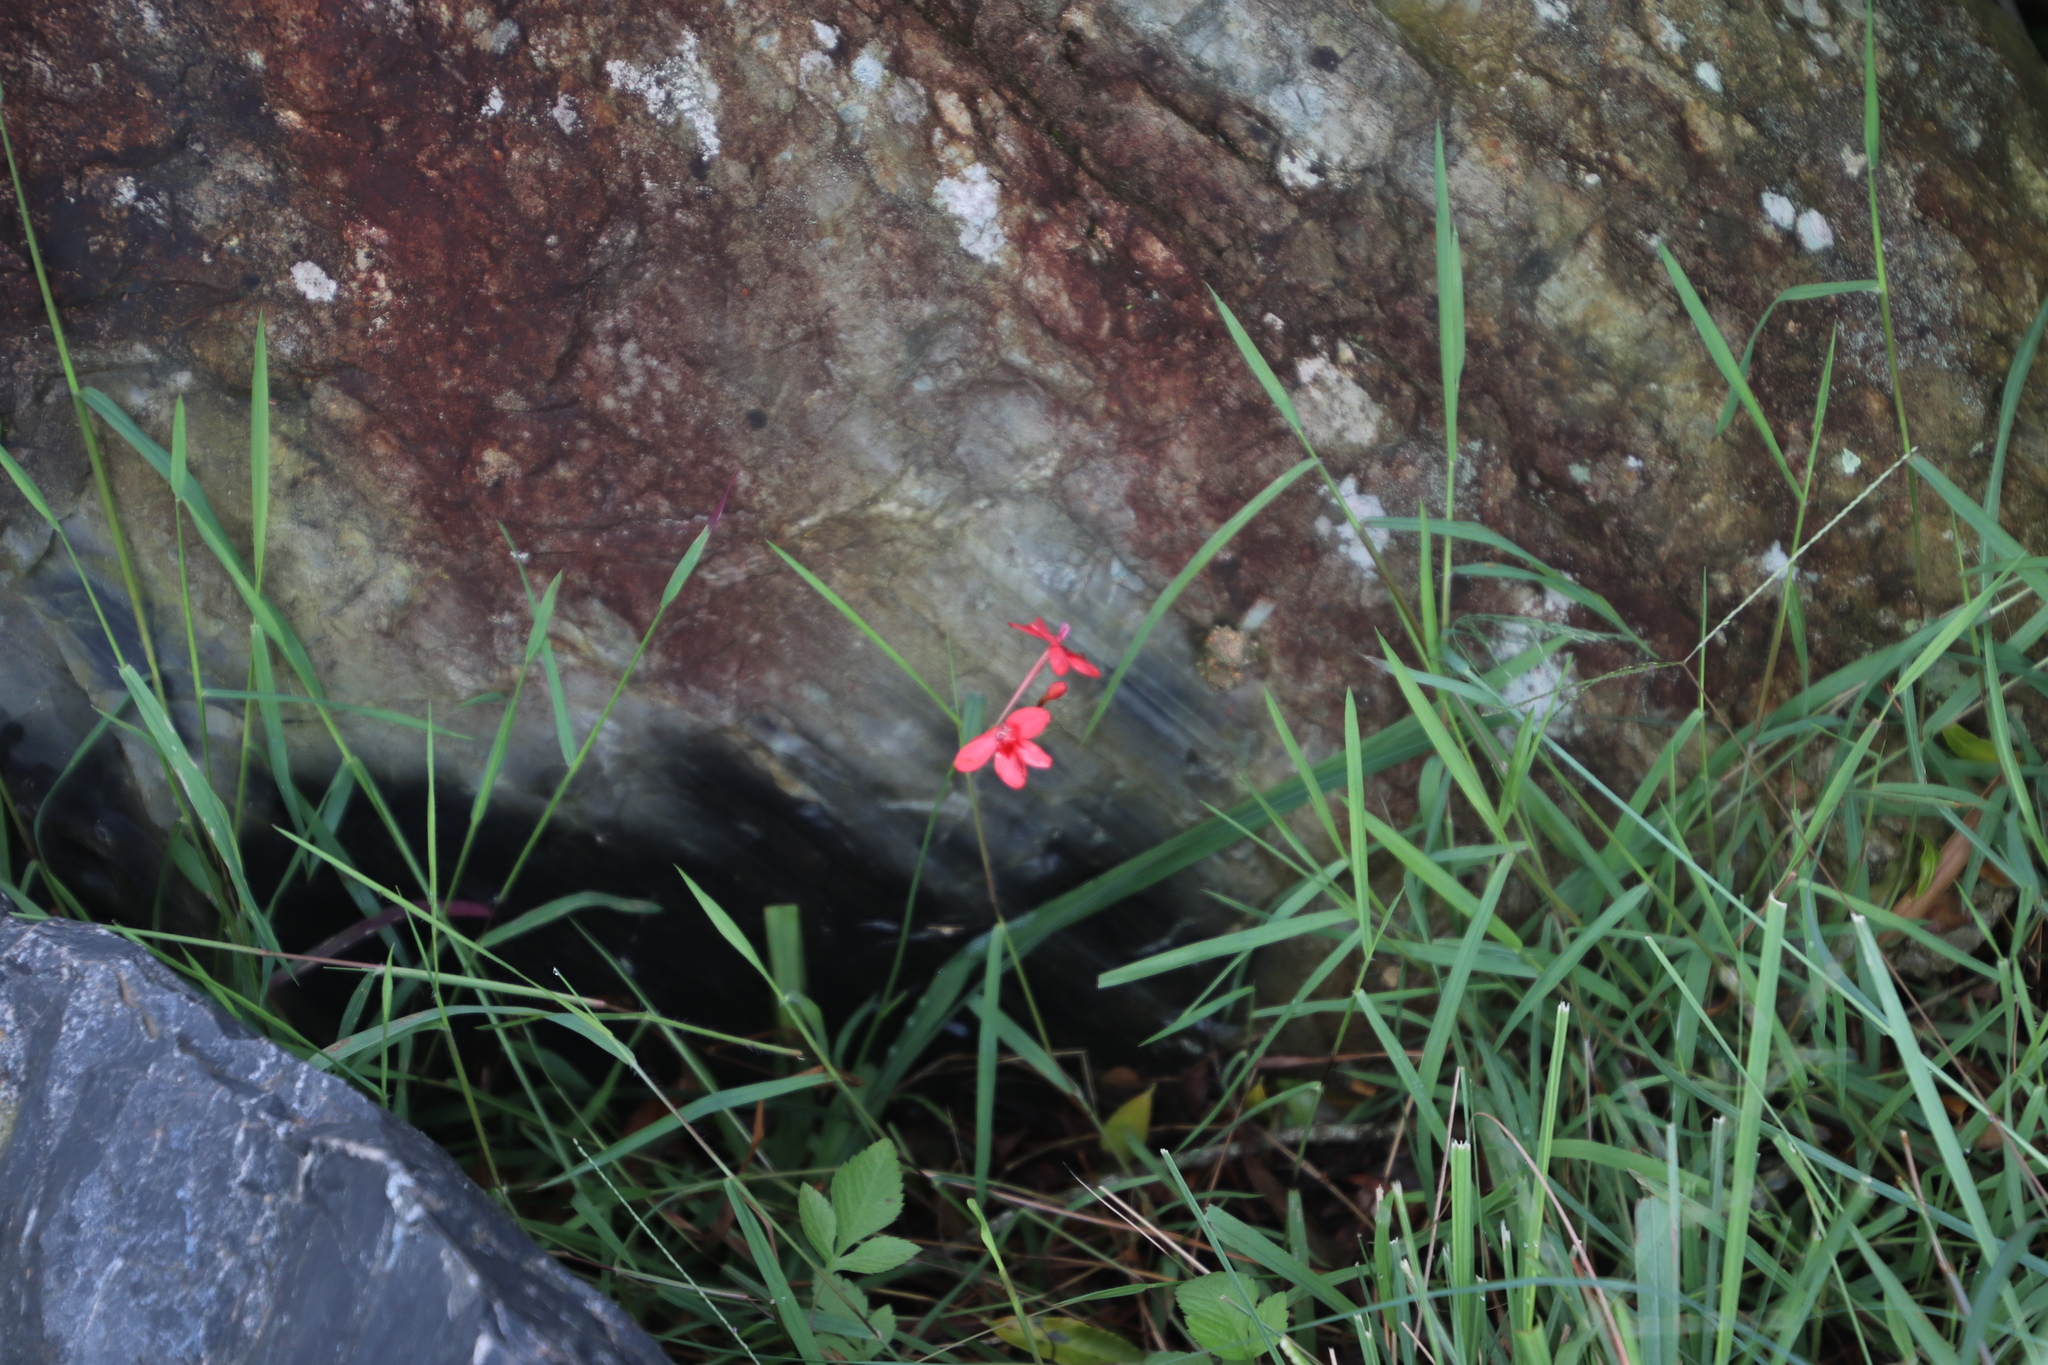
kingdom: Plantae
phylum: Tracheophyta
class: Liliopsida
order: Asparagales
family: Iridaceae
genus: Freesia
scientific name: Freesia laxa
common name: False freesia
